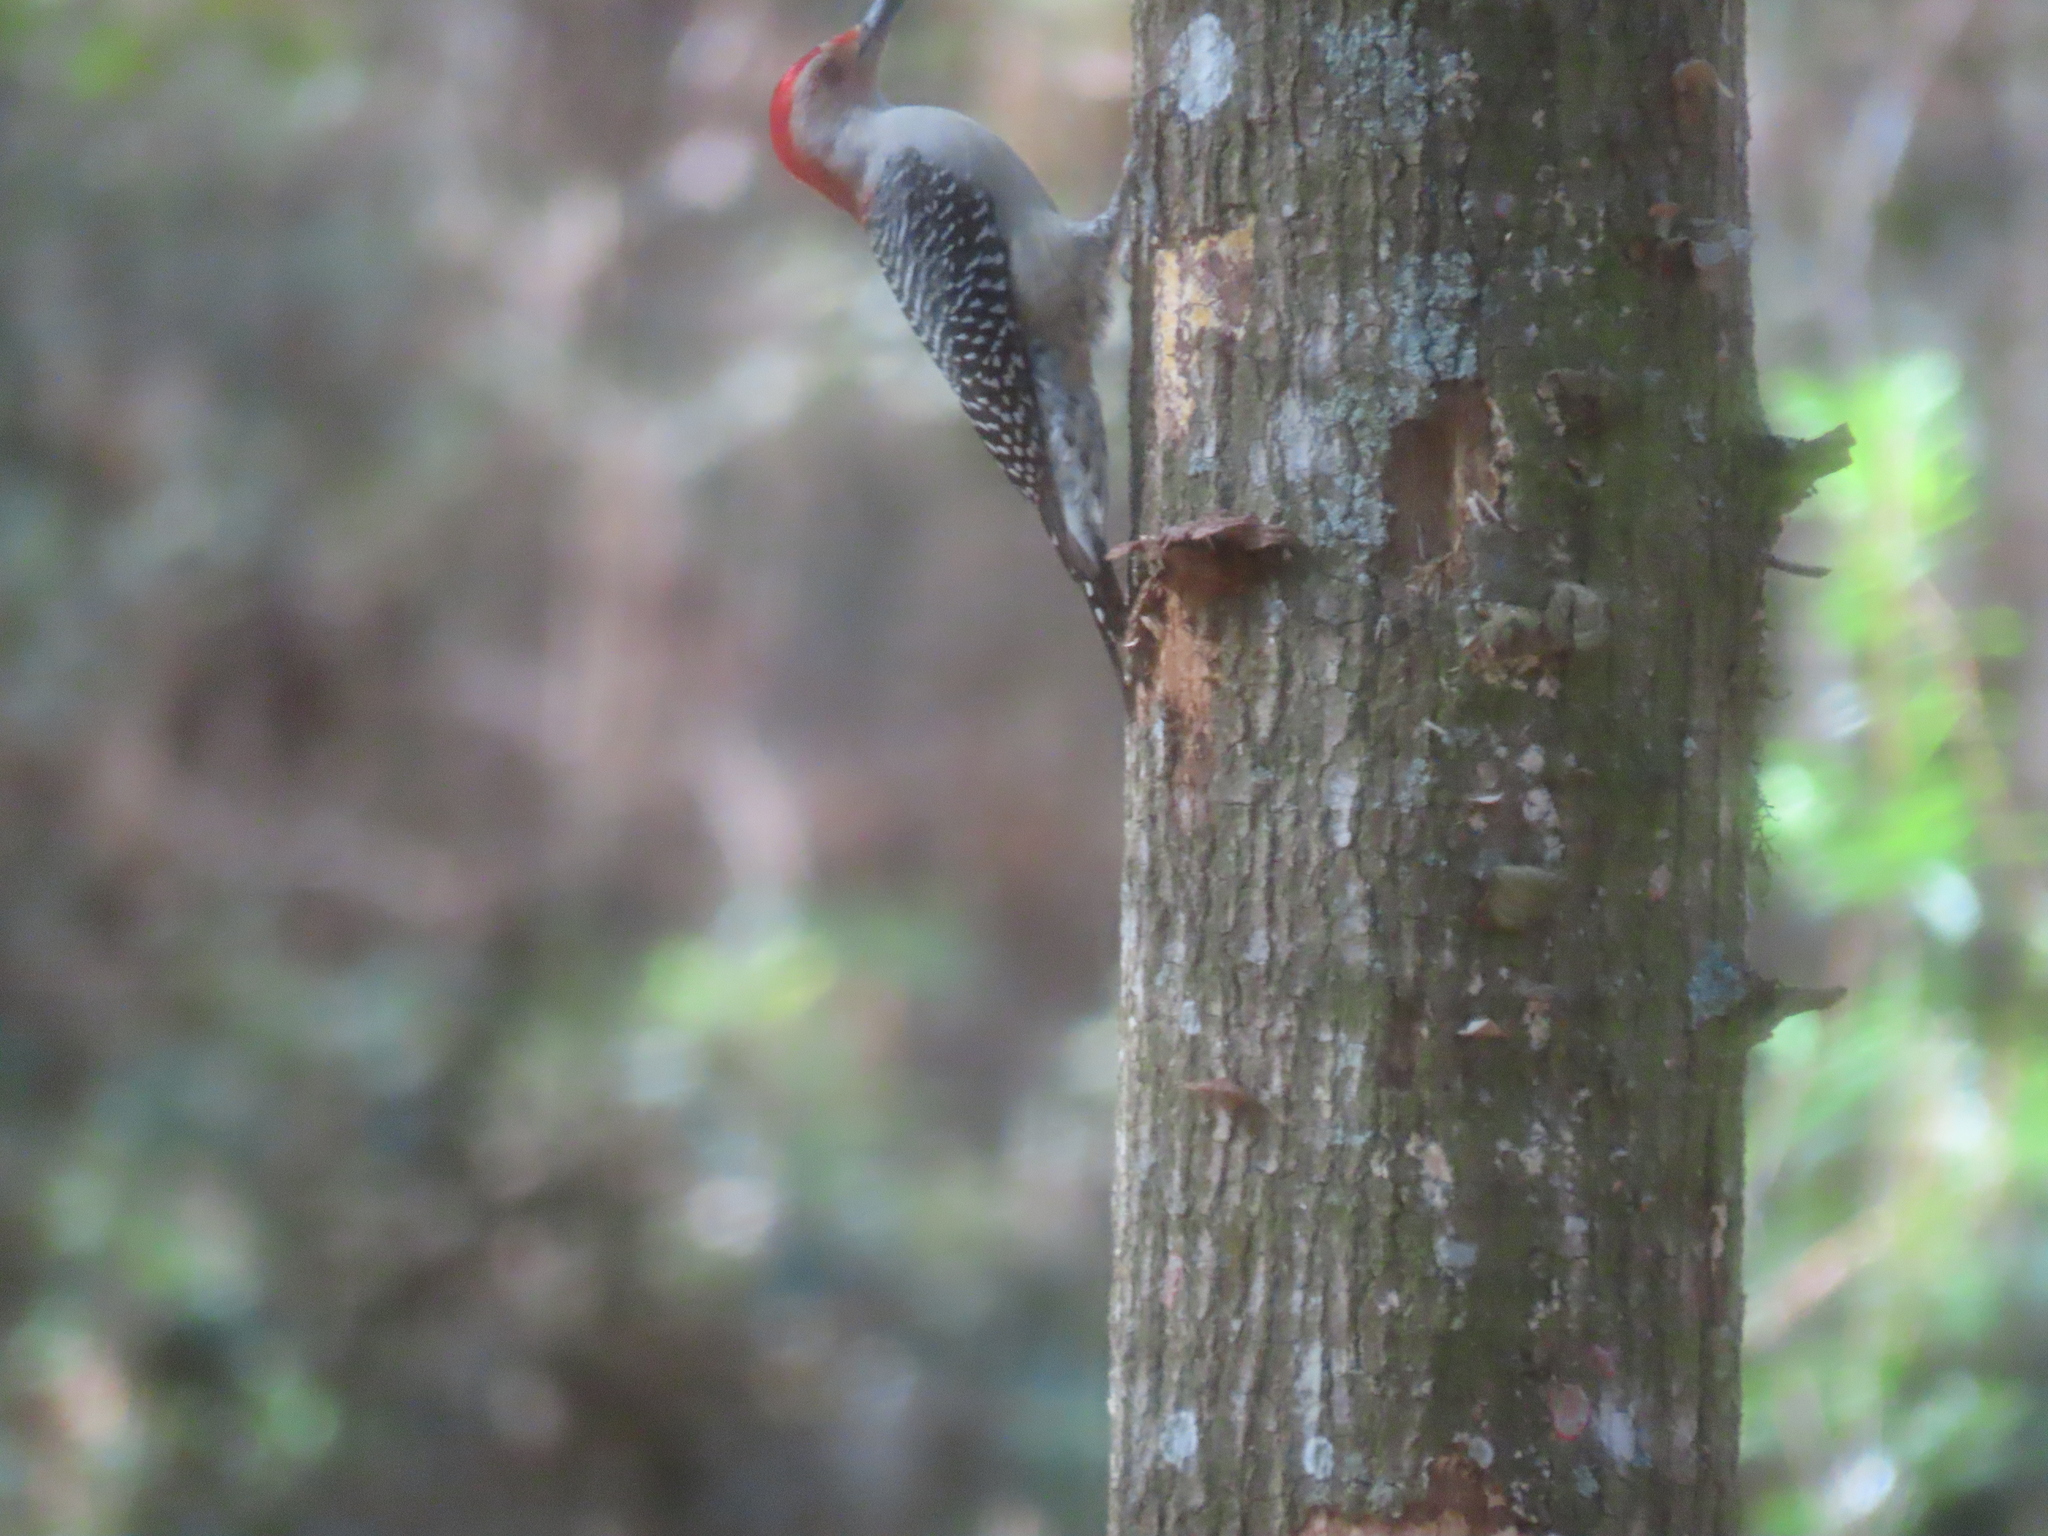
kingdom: Animalia
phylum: Chordata
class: Aves
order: Piciformes
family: Picidae
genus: Melanerpes
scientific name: Melanerpes carolinus
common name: Red-bellied woodpecker
